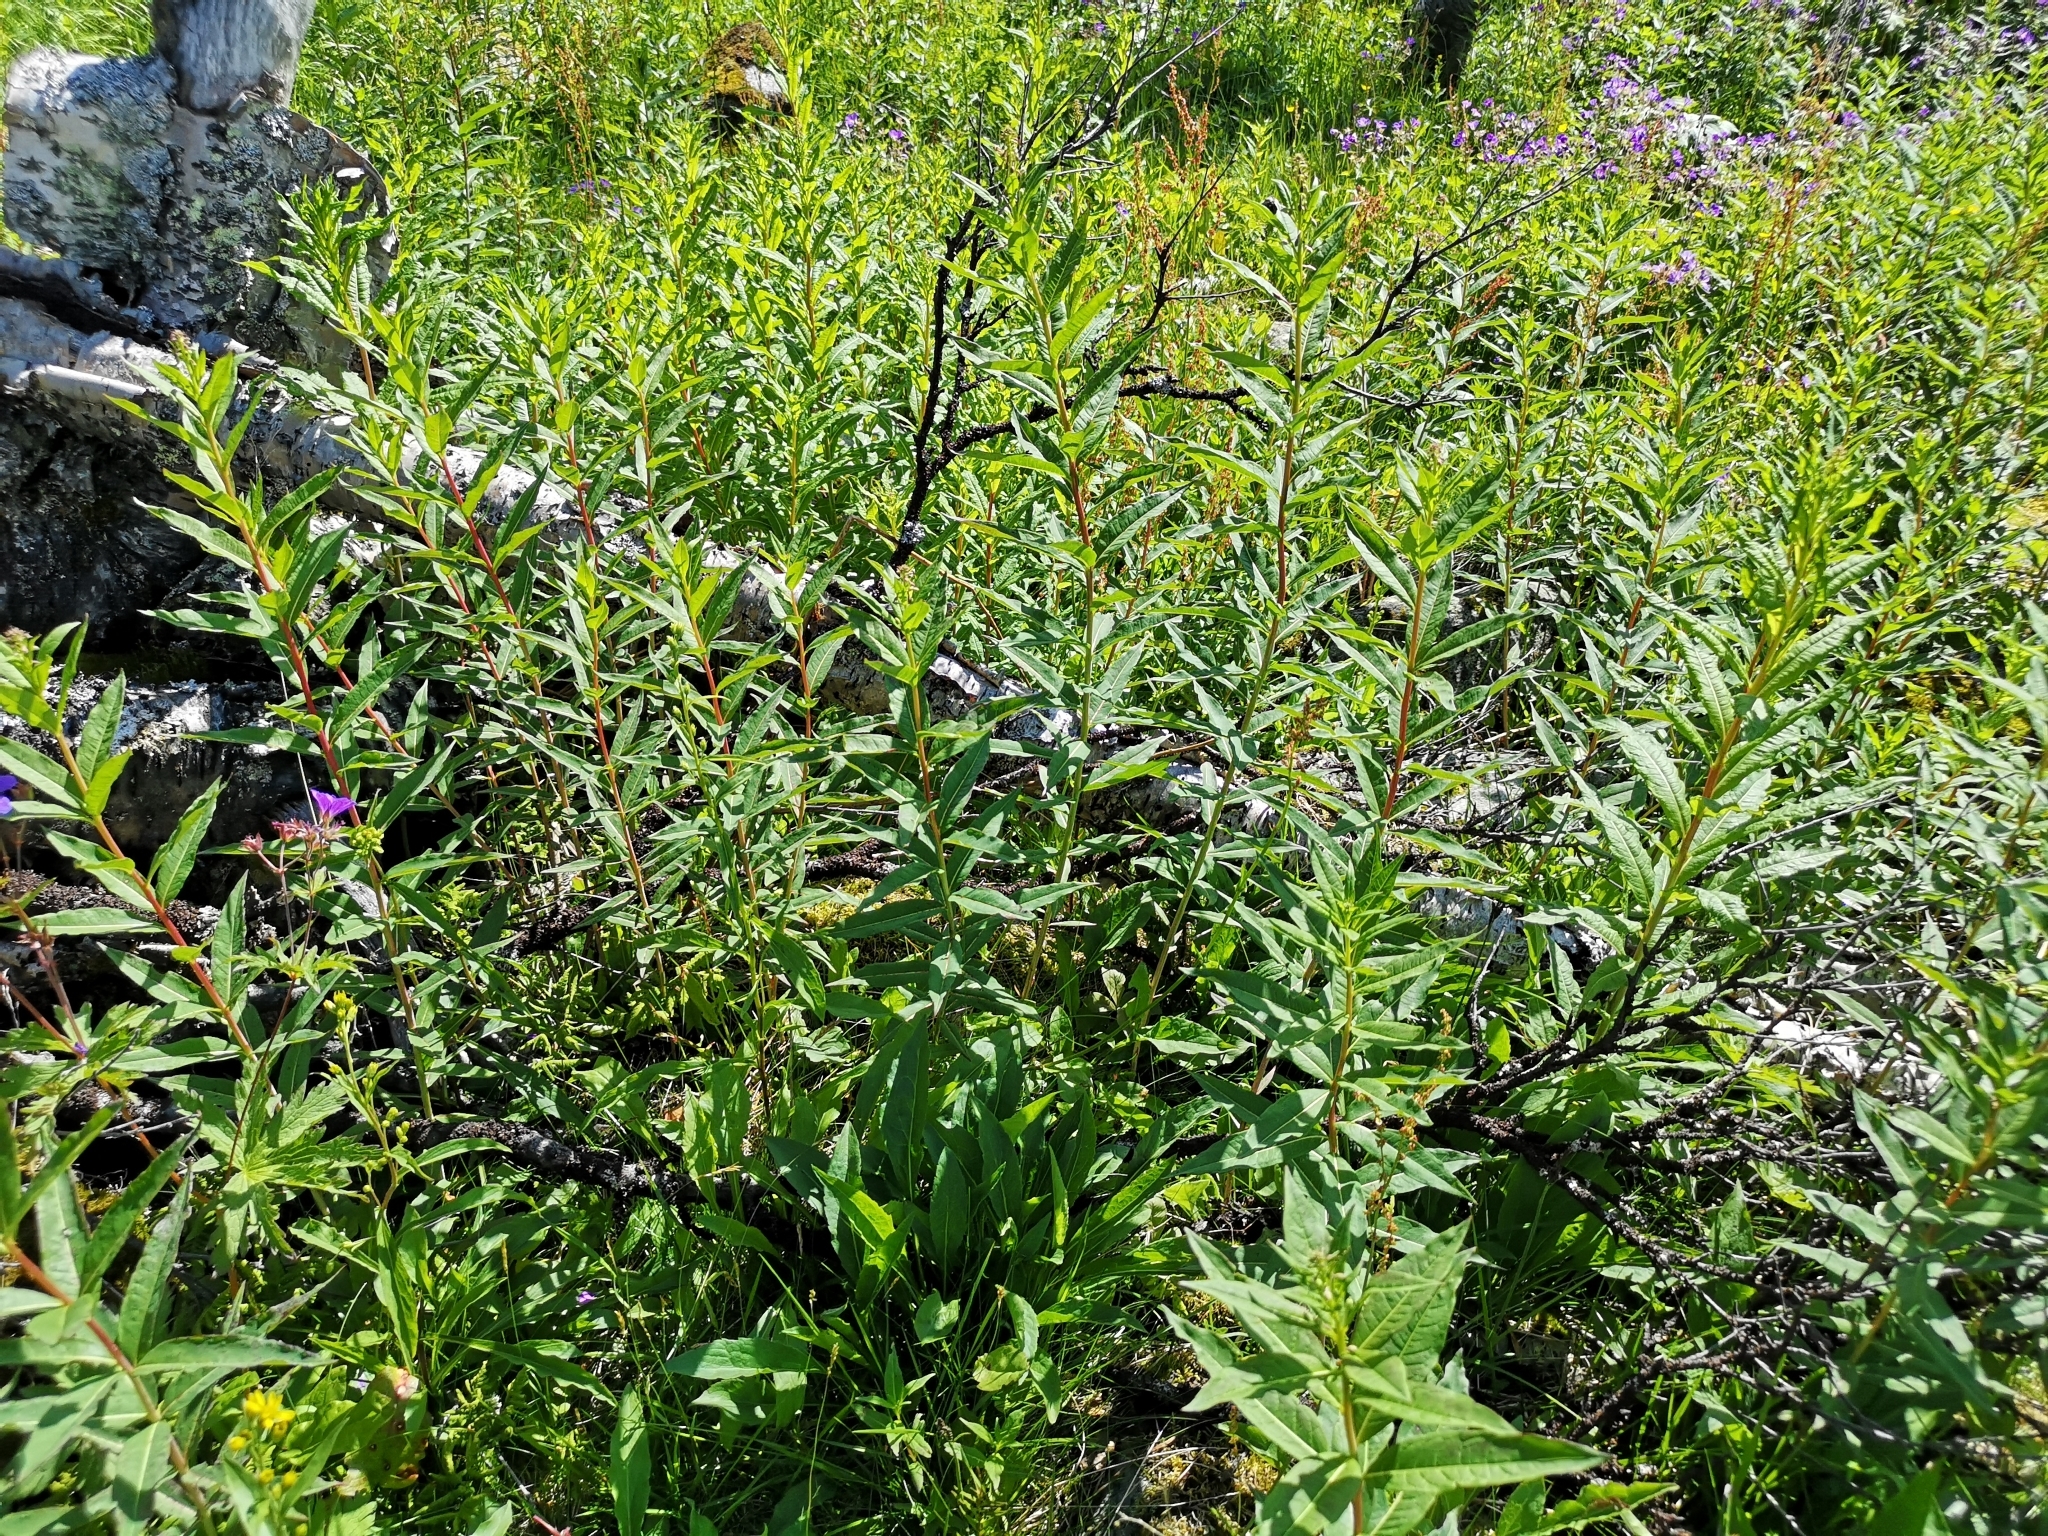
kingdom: Plantae
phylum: Tracheophyta
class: Magnoliopsida
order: Myrtales
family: Onagraceae
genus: Chamaenerion
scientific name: Chamaenerion angustifolium
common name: Fireweed
